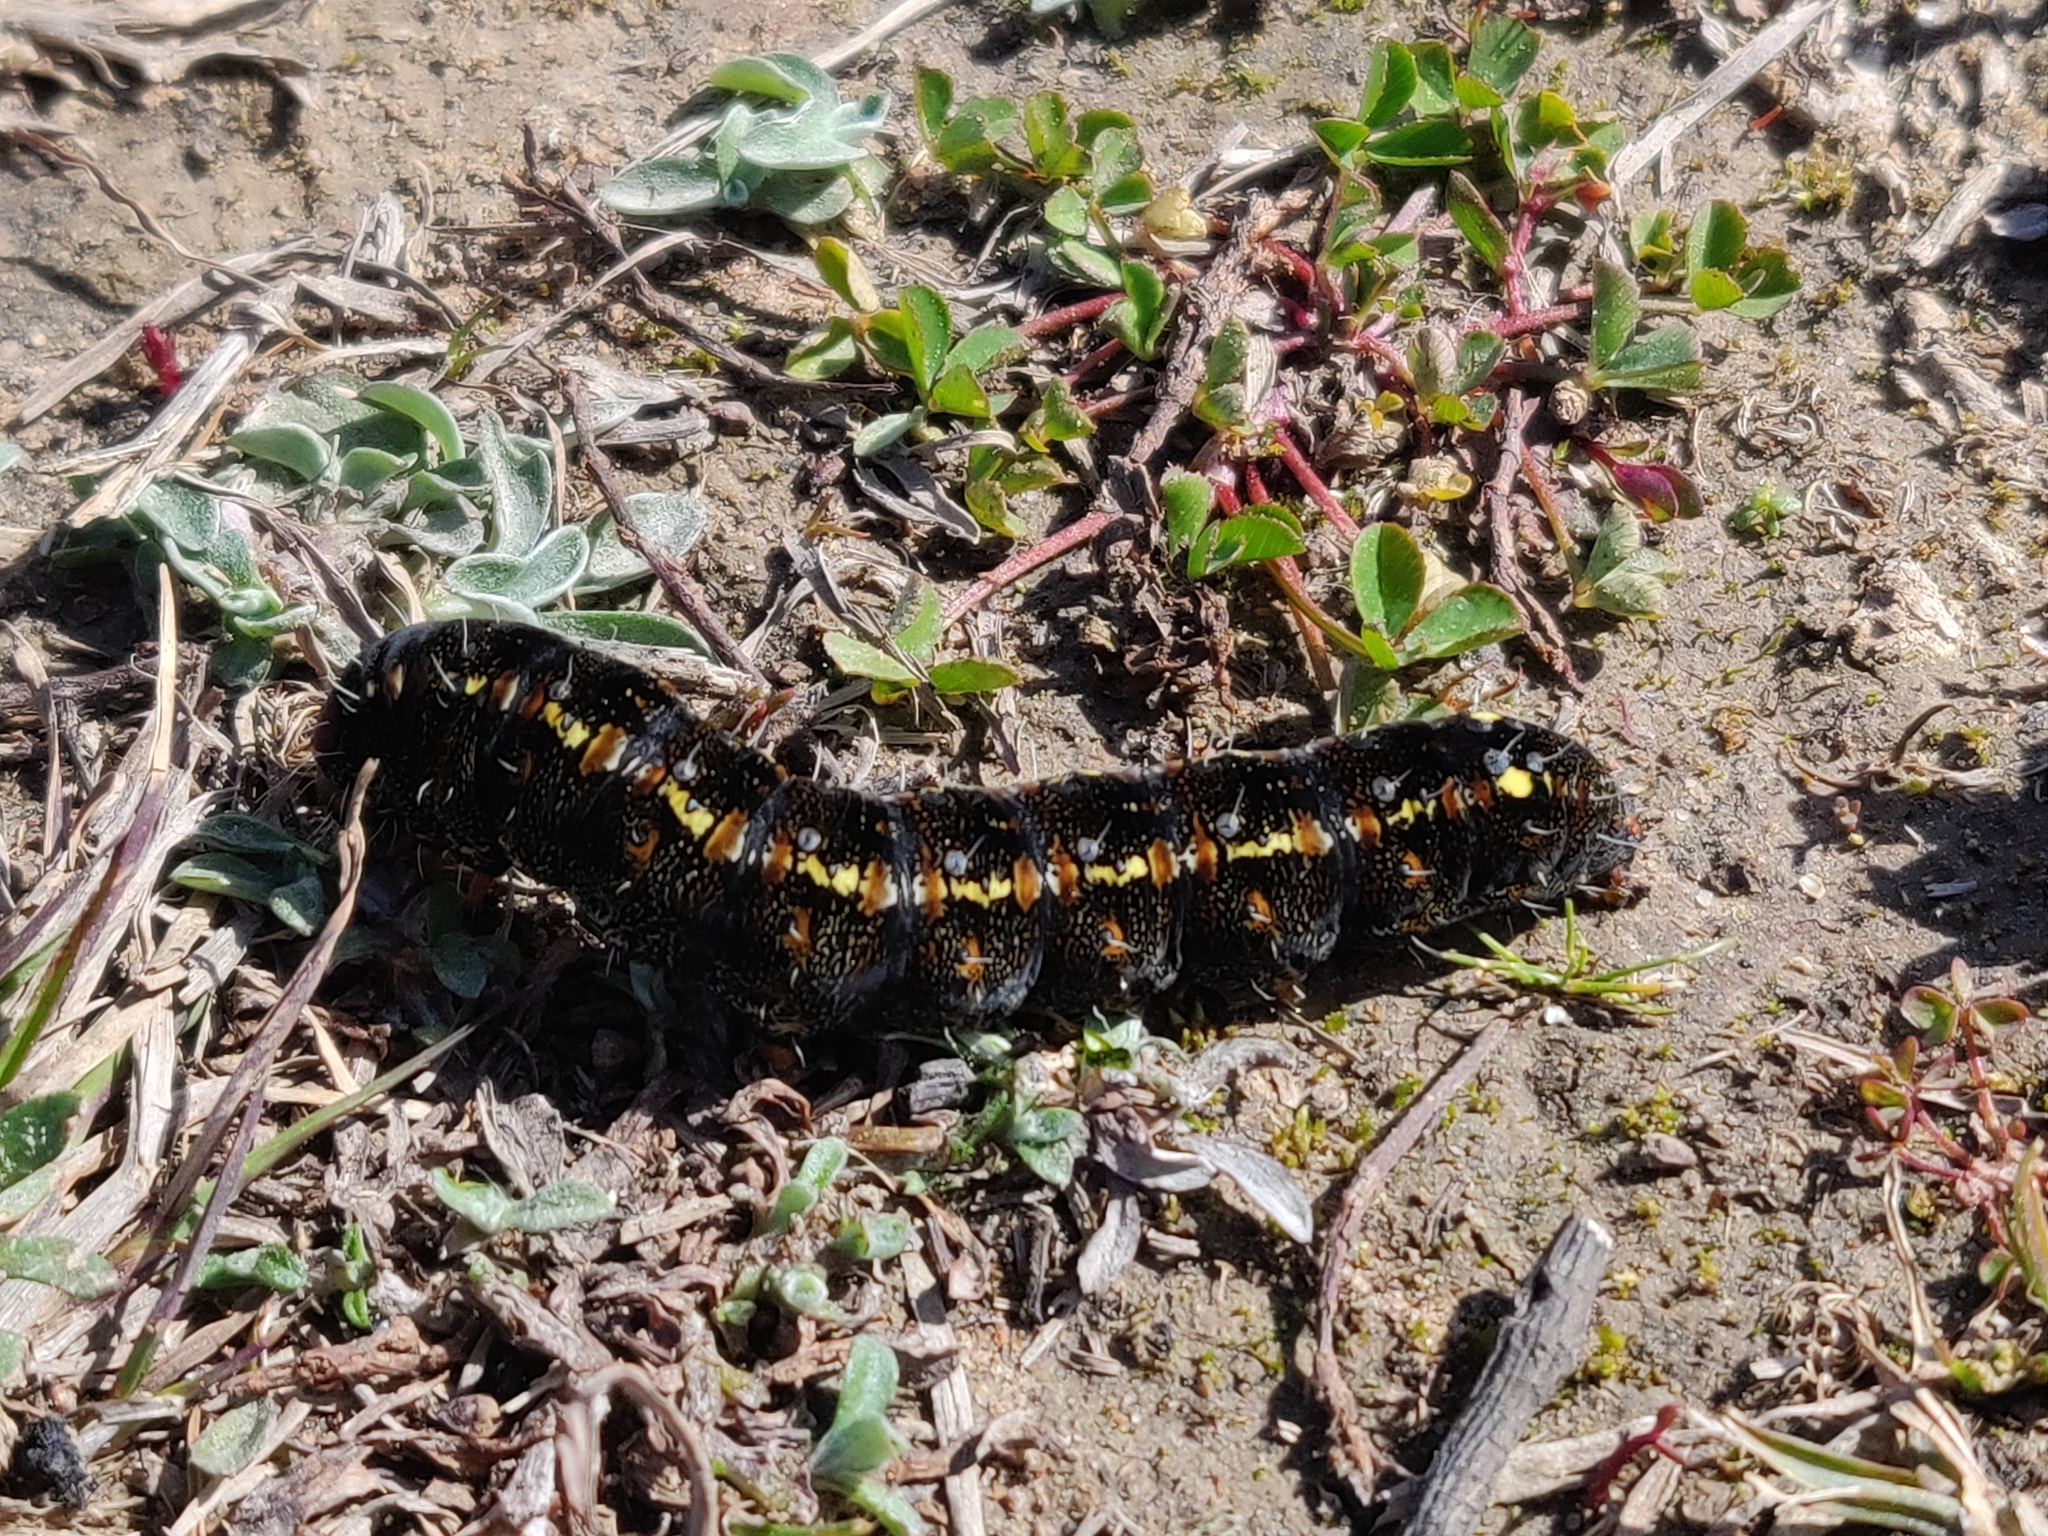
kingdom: Animalia
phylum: Arthropoda
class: Insecta
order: Lepidoptera
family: Noctuidae
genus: Apina
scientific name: Apina callisto
